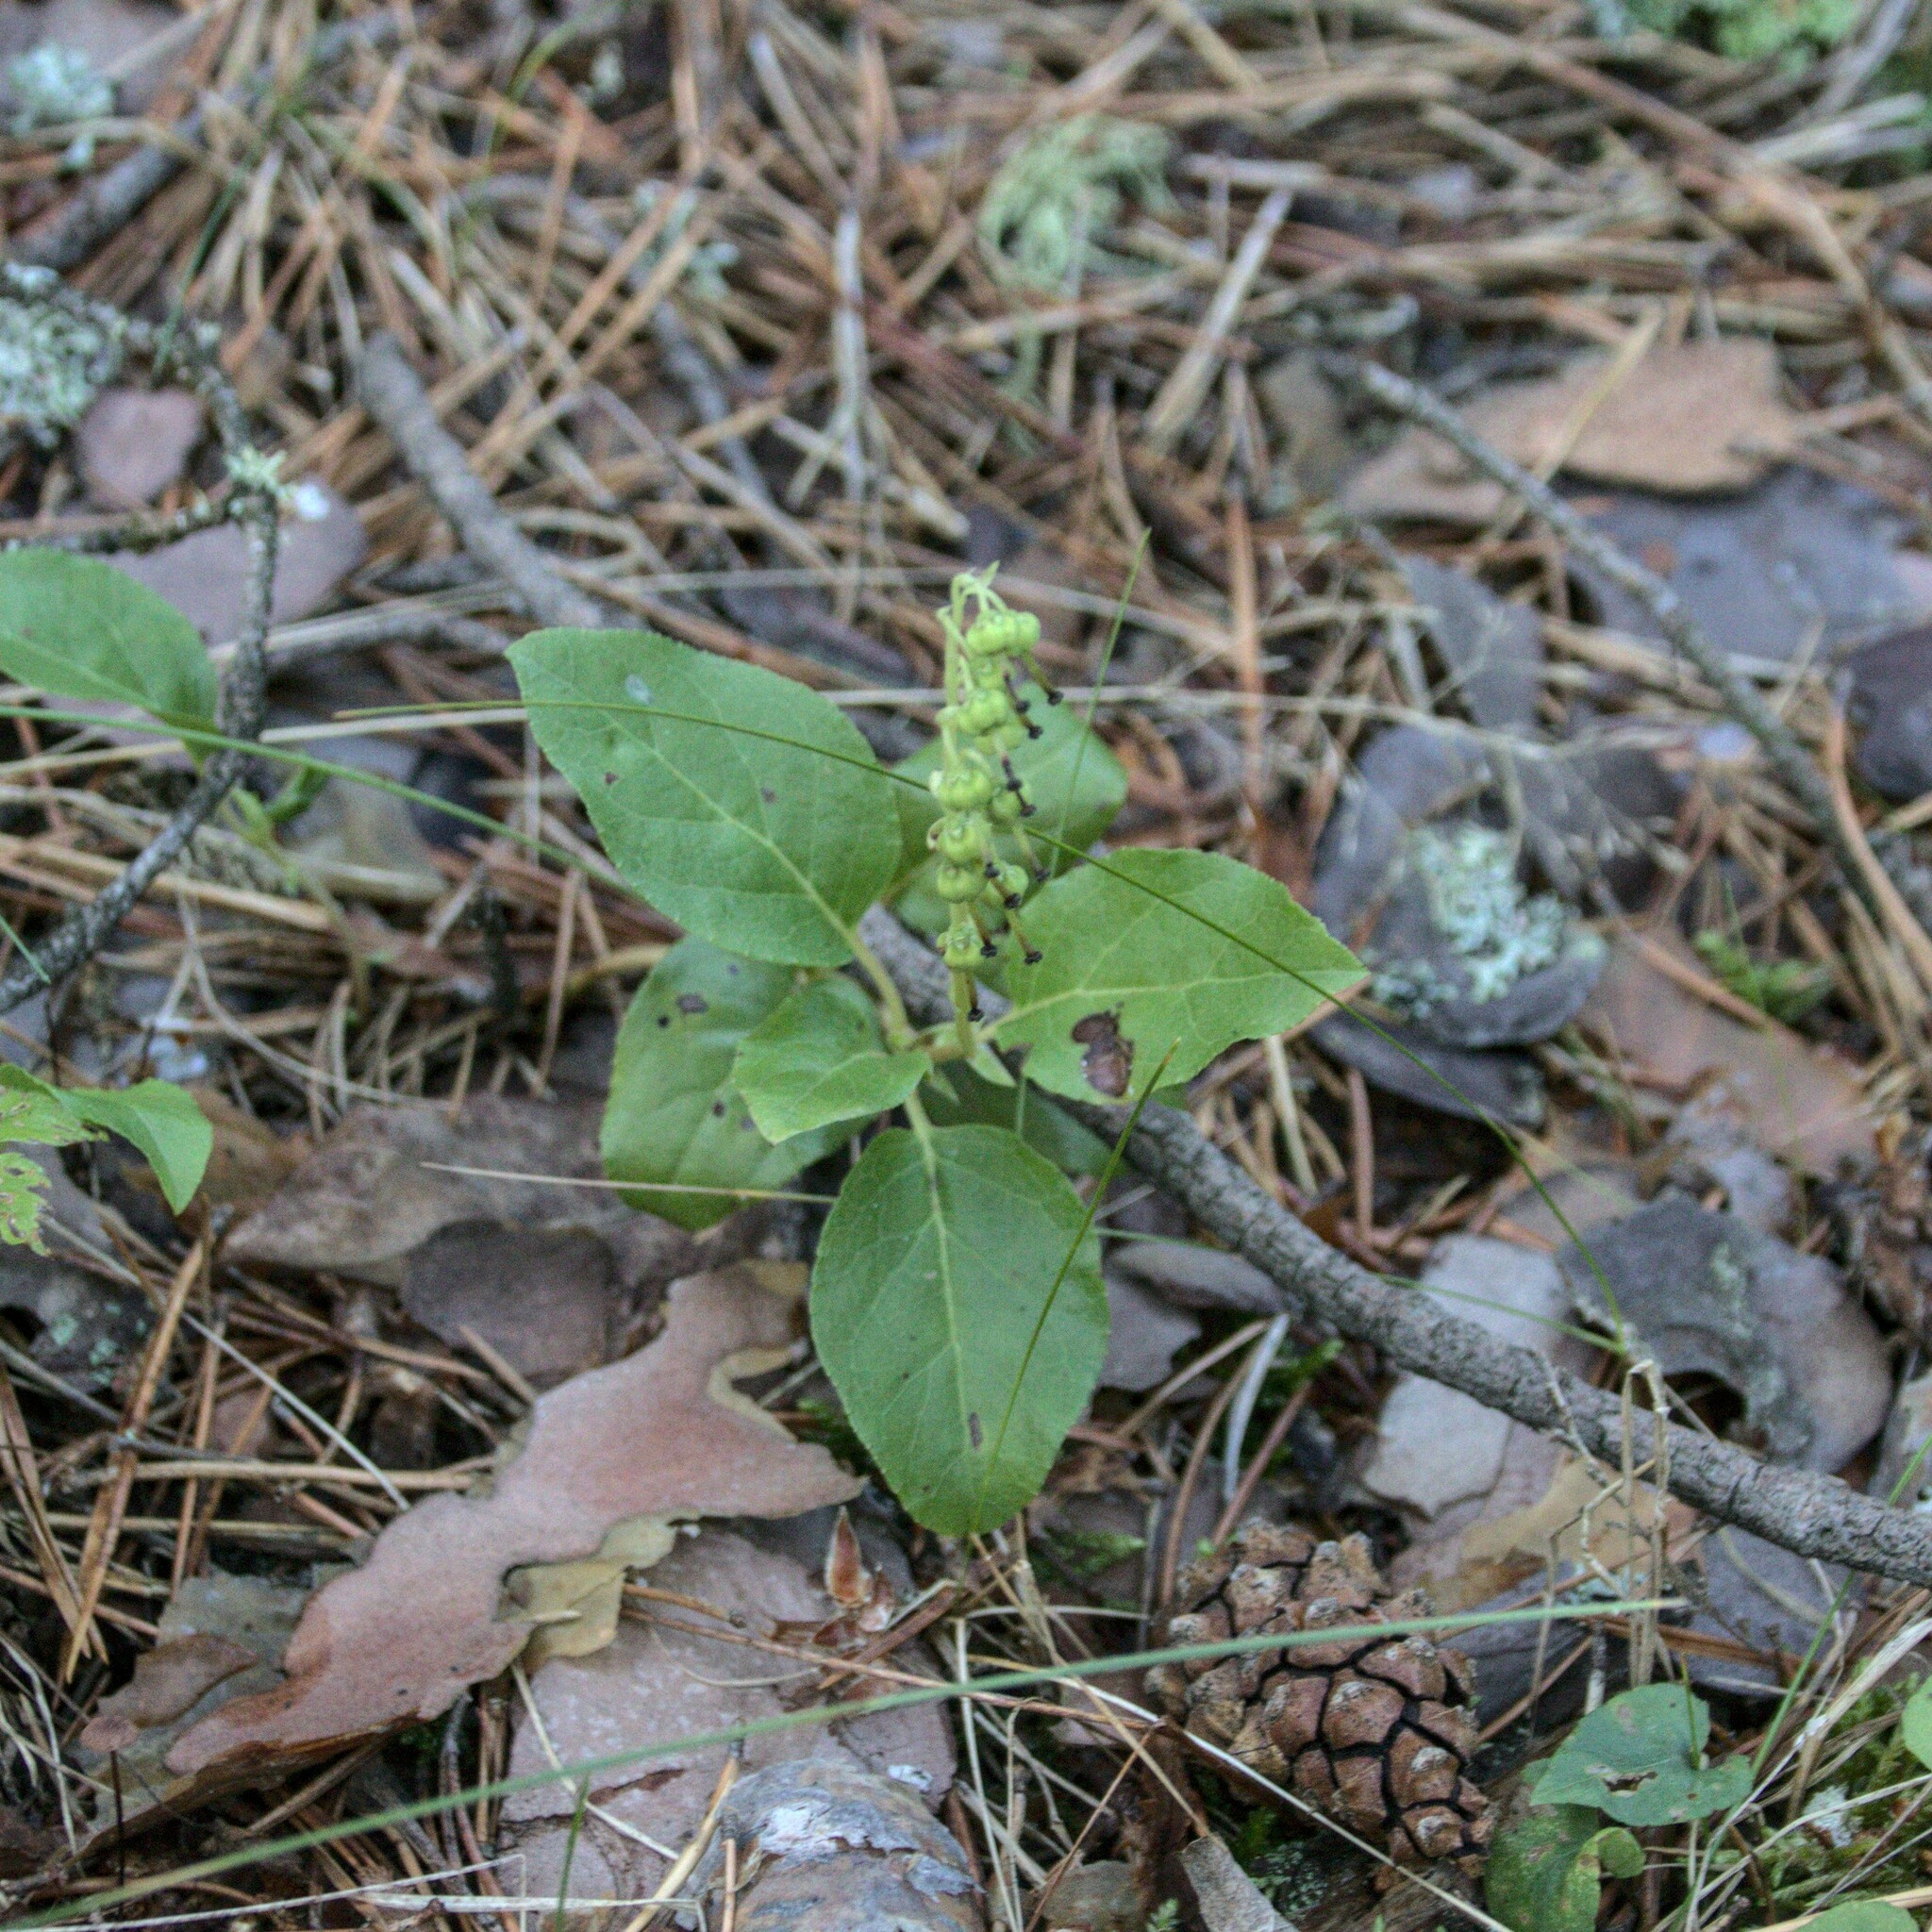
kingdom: Plantae
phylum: Tracheophyta
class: Magnoliopsida
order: Ericales
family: Ericaceae
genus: Orthilia
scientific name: Orthilia secunda
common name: One-sided orthilia
